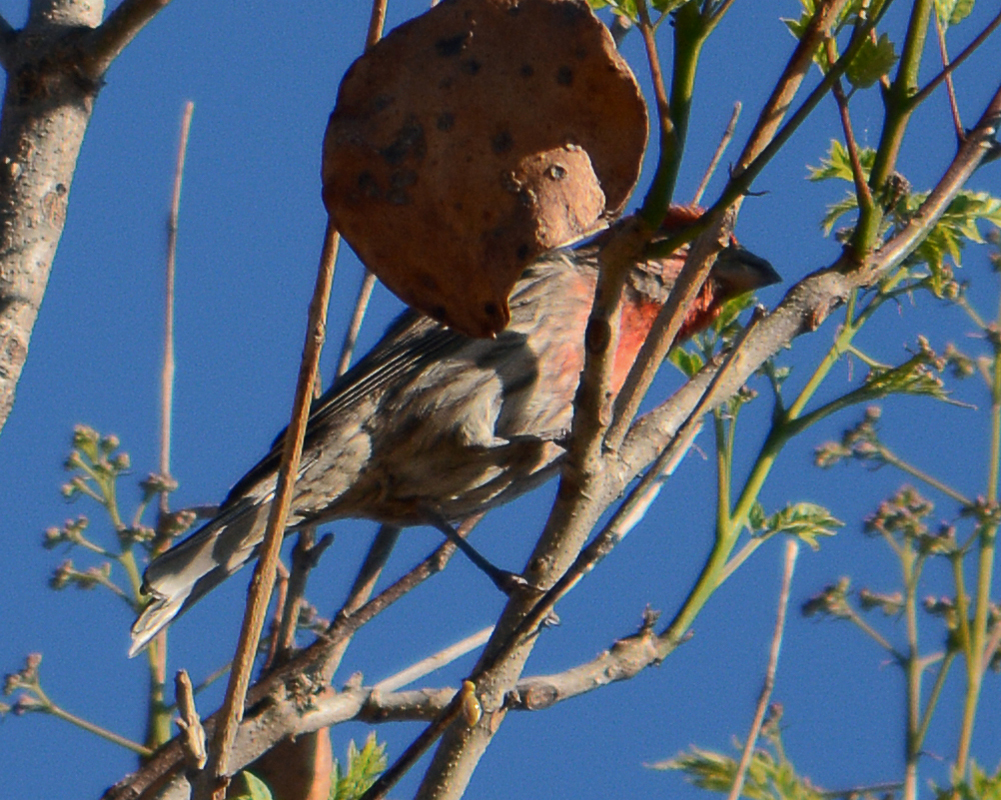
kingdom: Animalia
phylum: Chordata
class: Aves
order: Passeriformes
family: Fringillidae
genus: Haemorhous
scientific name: Haemorhous mexicanus
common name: House finch
